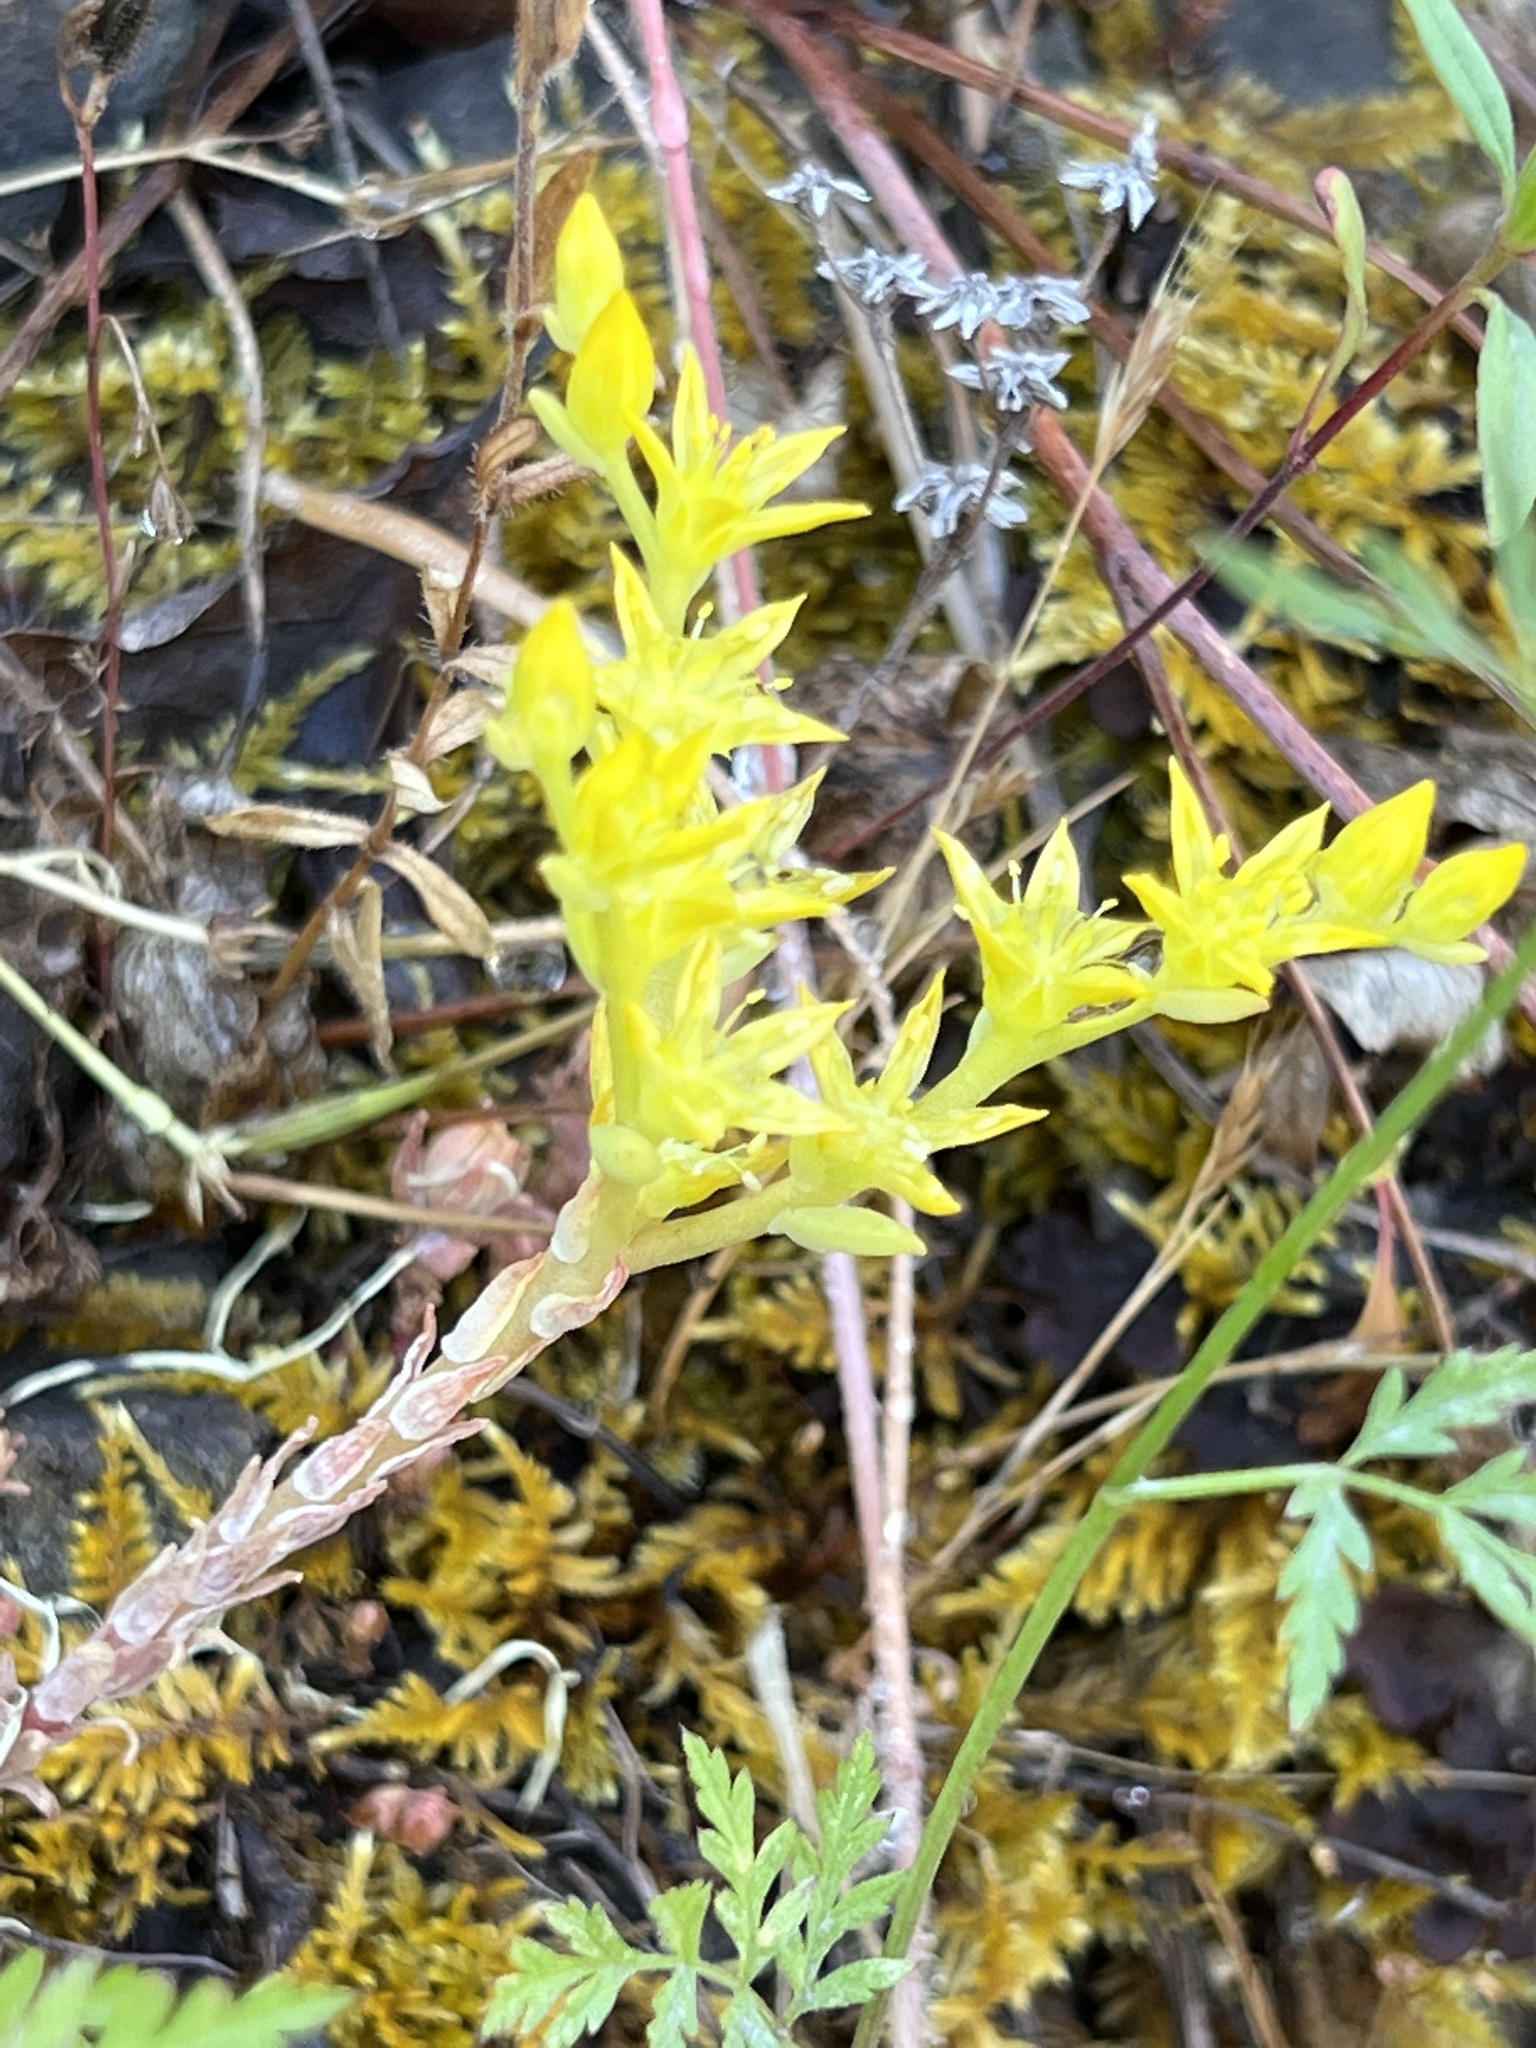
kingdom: Plantae
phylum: Tracheophyta
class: Magnoliopsida
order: Saxifragales
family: Crassulaceae
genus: Sedum
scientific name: Sedum radiatum
